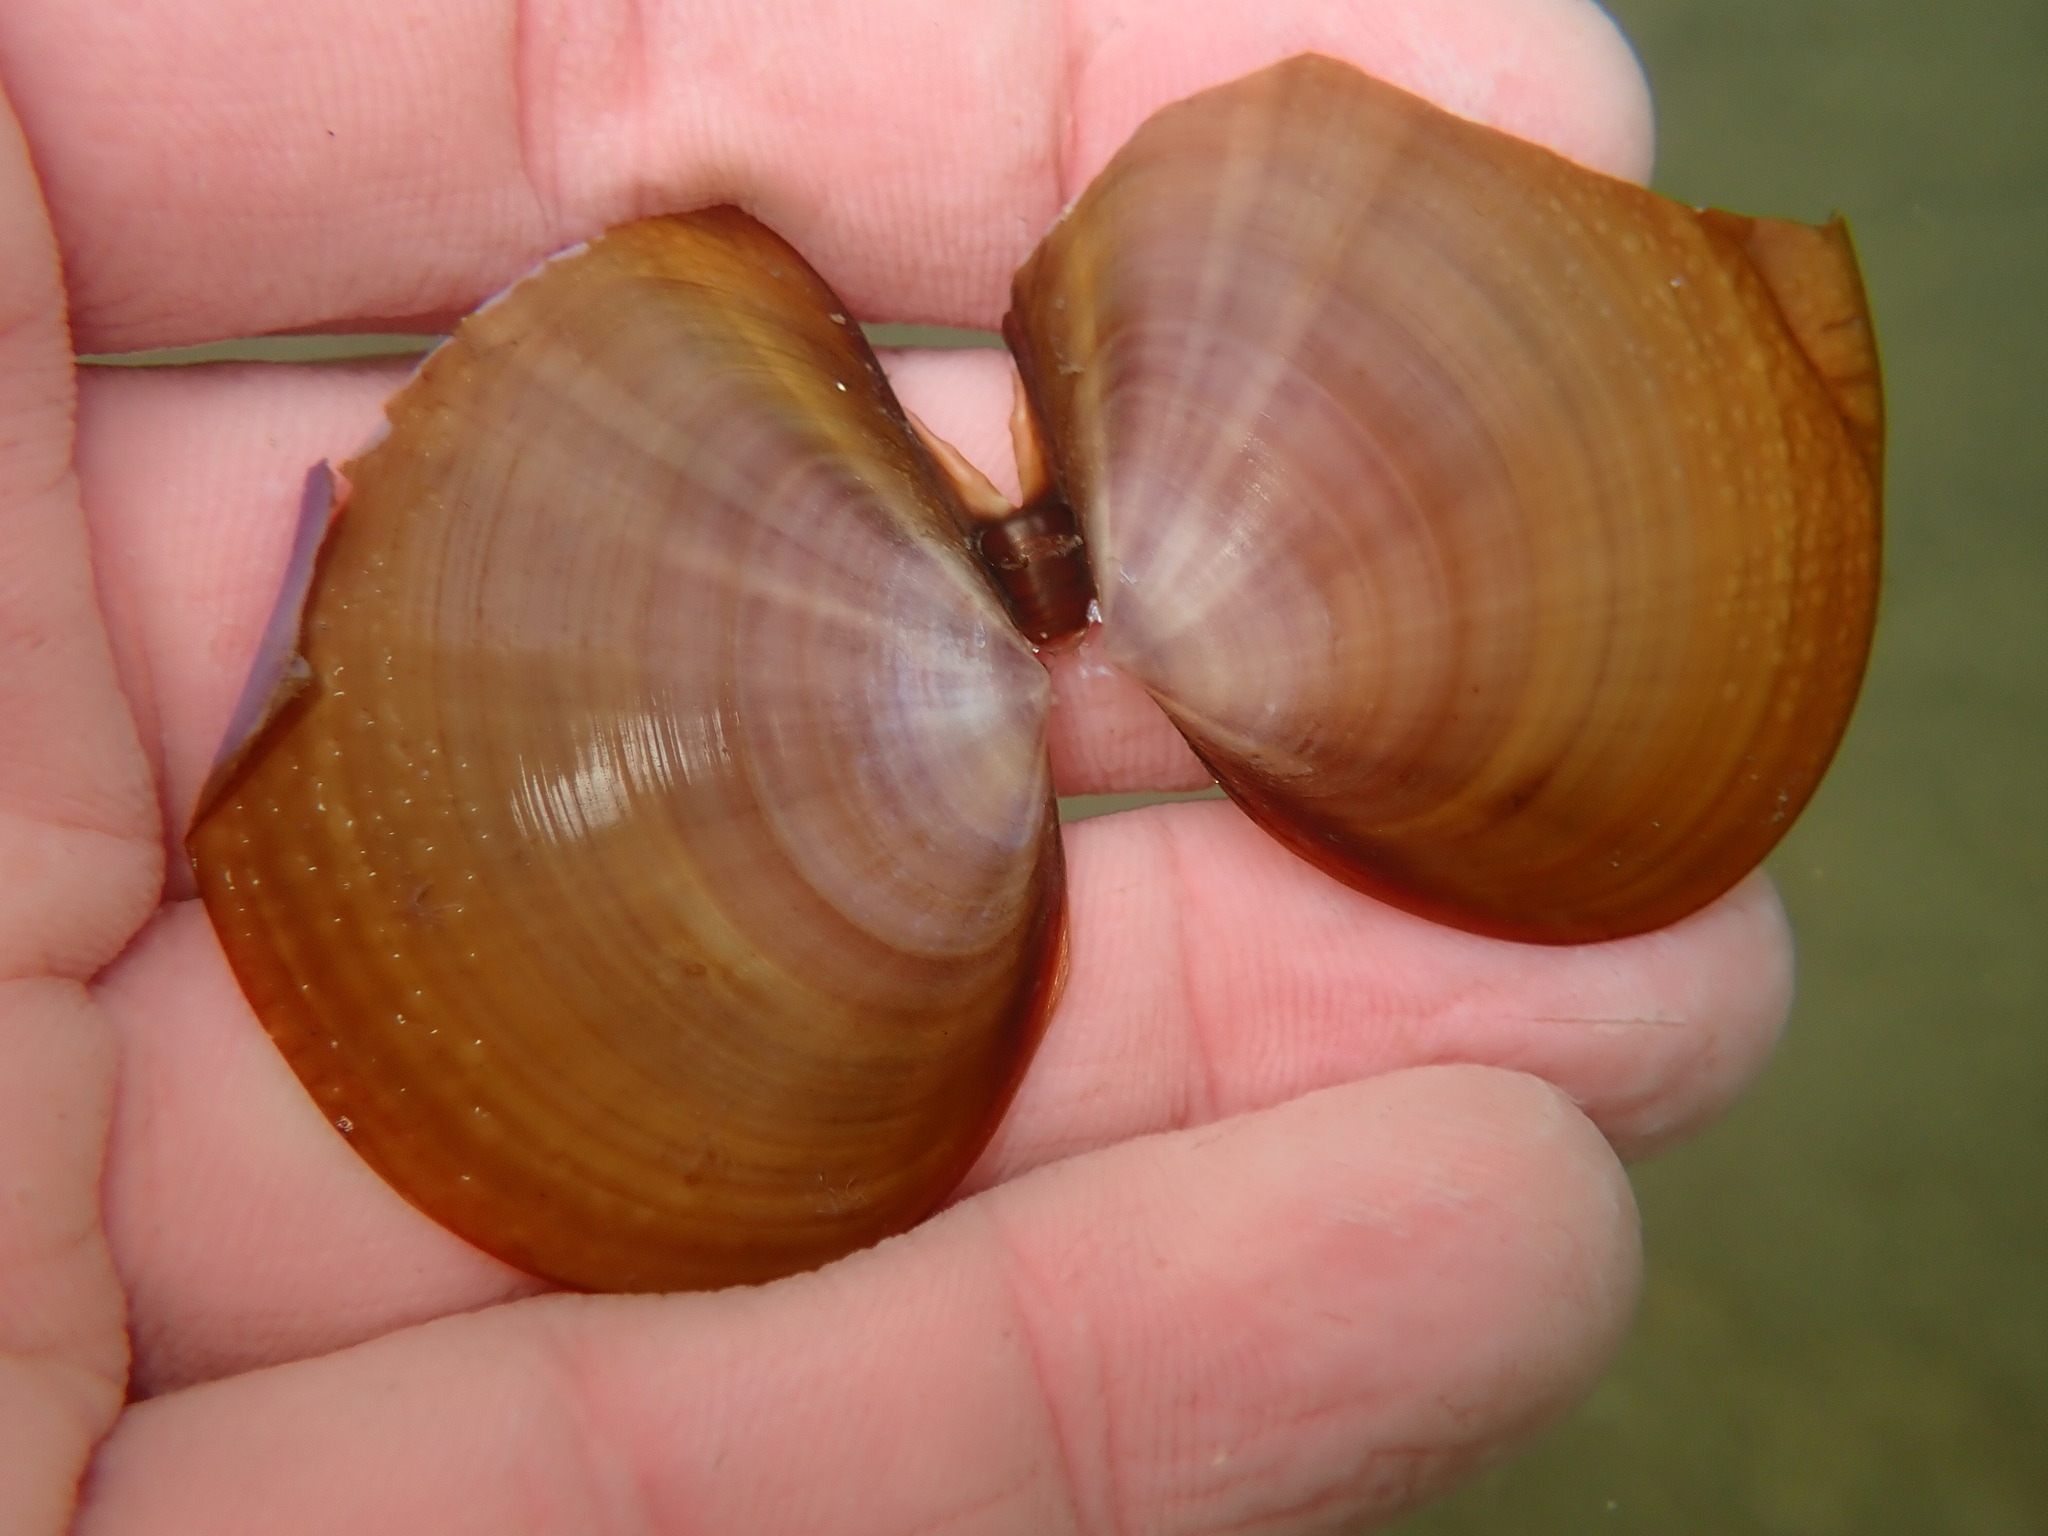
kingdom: Animalia
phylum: Mollusca
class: Bivalvia
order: Cardiida
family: Psammobiidae
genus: Nuttallia
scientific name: Nuttallia nuttallii
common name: California mahogany-clam
